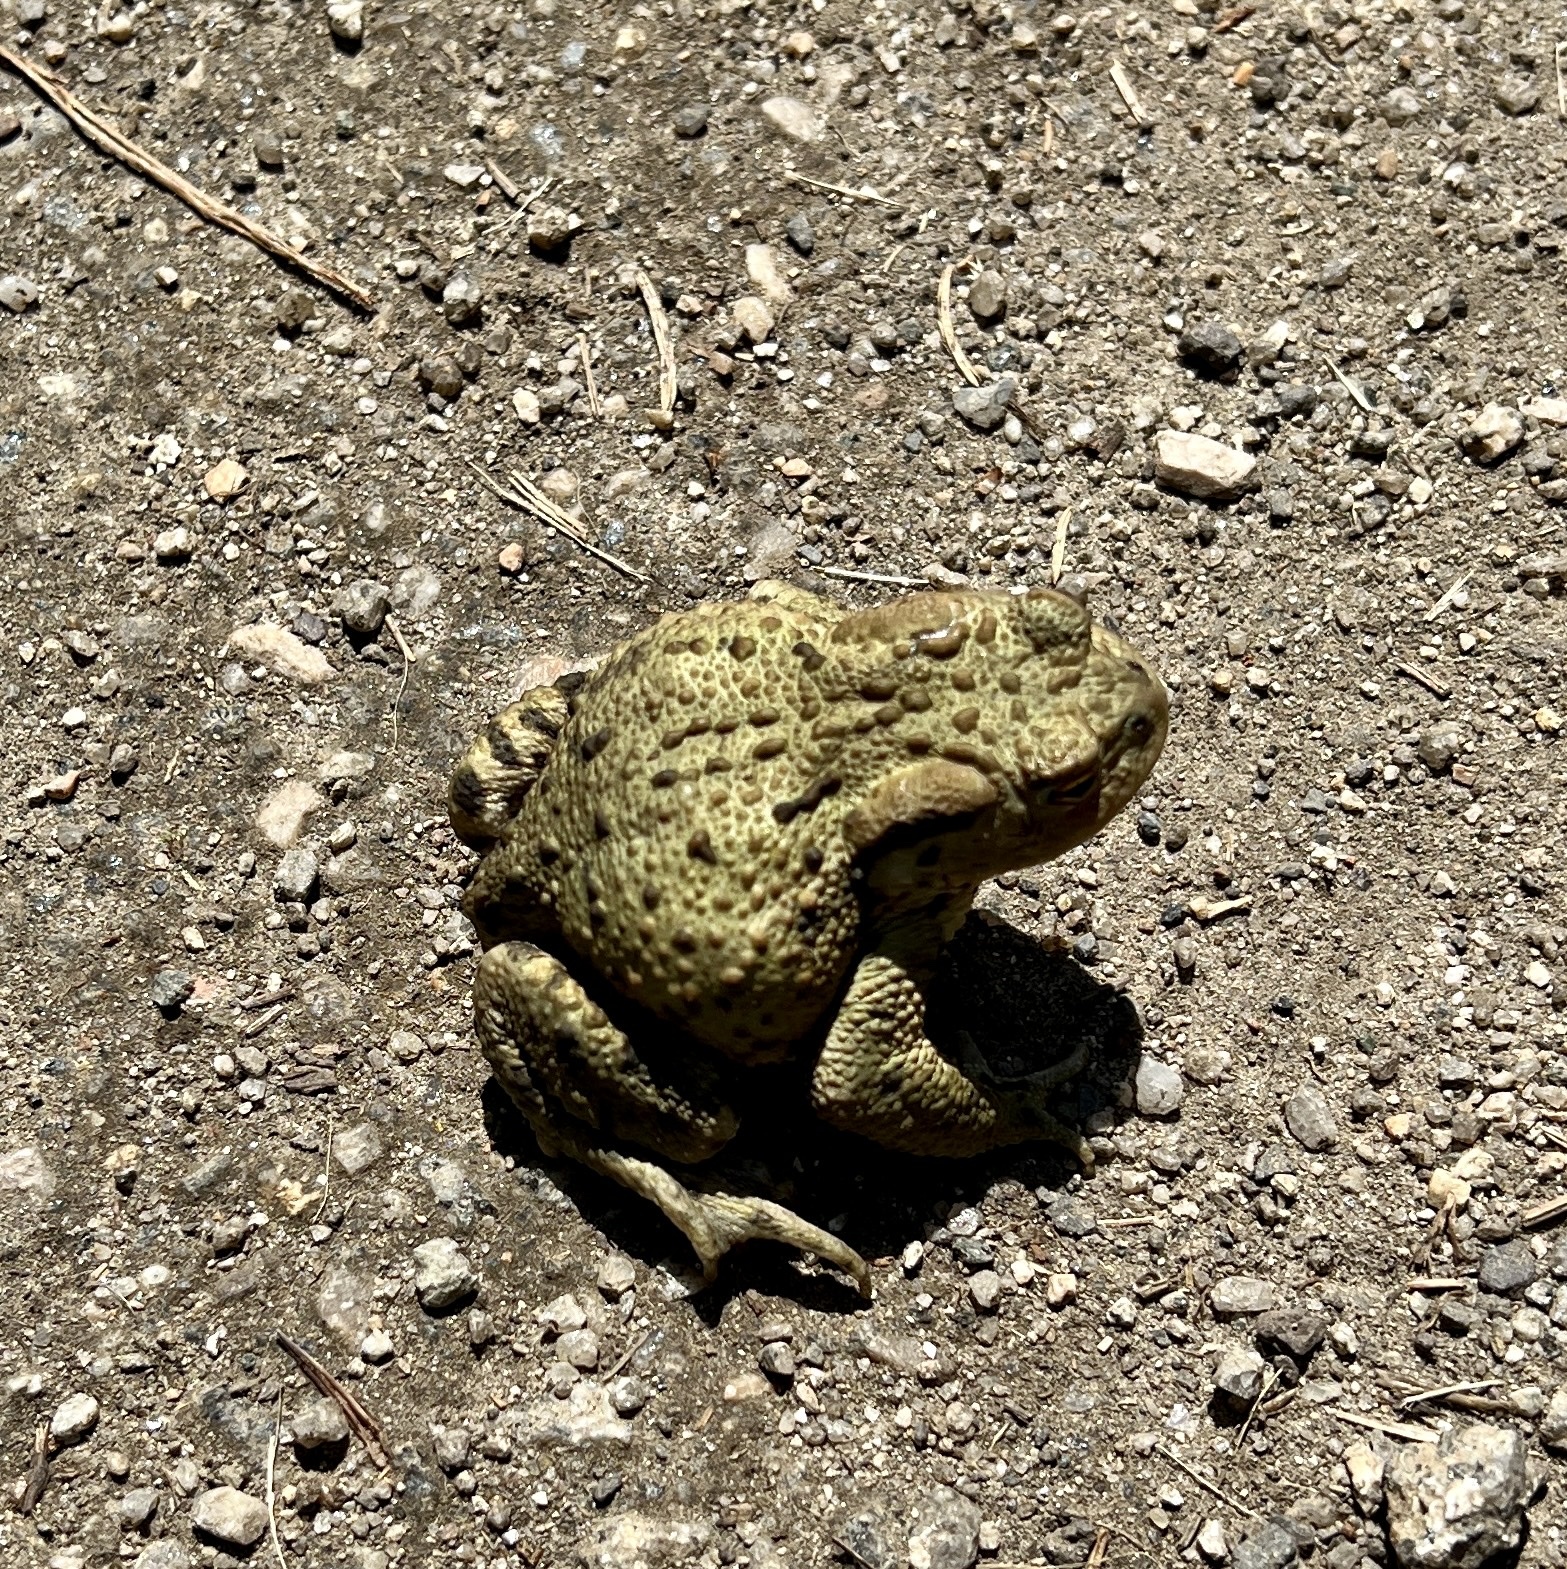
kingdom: Animalia
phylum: Chordata
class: Amphibia
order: Anura
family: Bufonidae
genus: Bufo
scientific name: Bufo bufo
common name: Common toad
